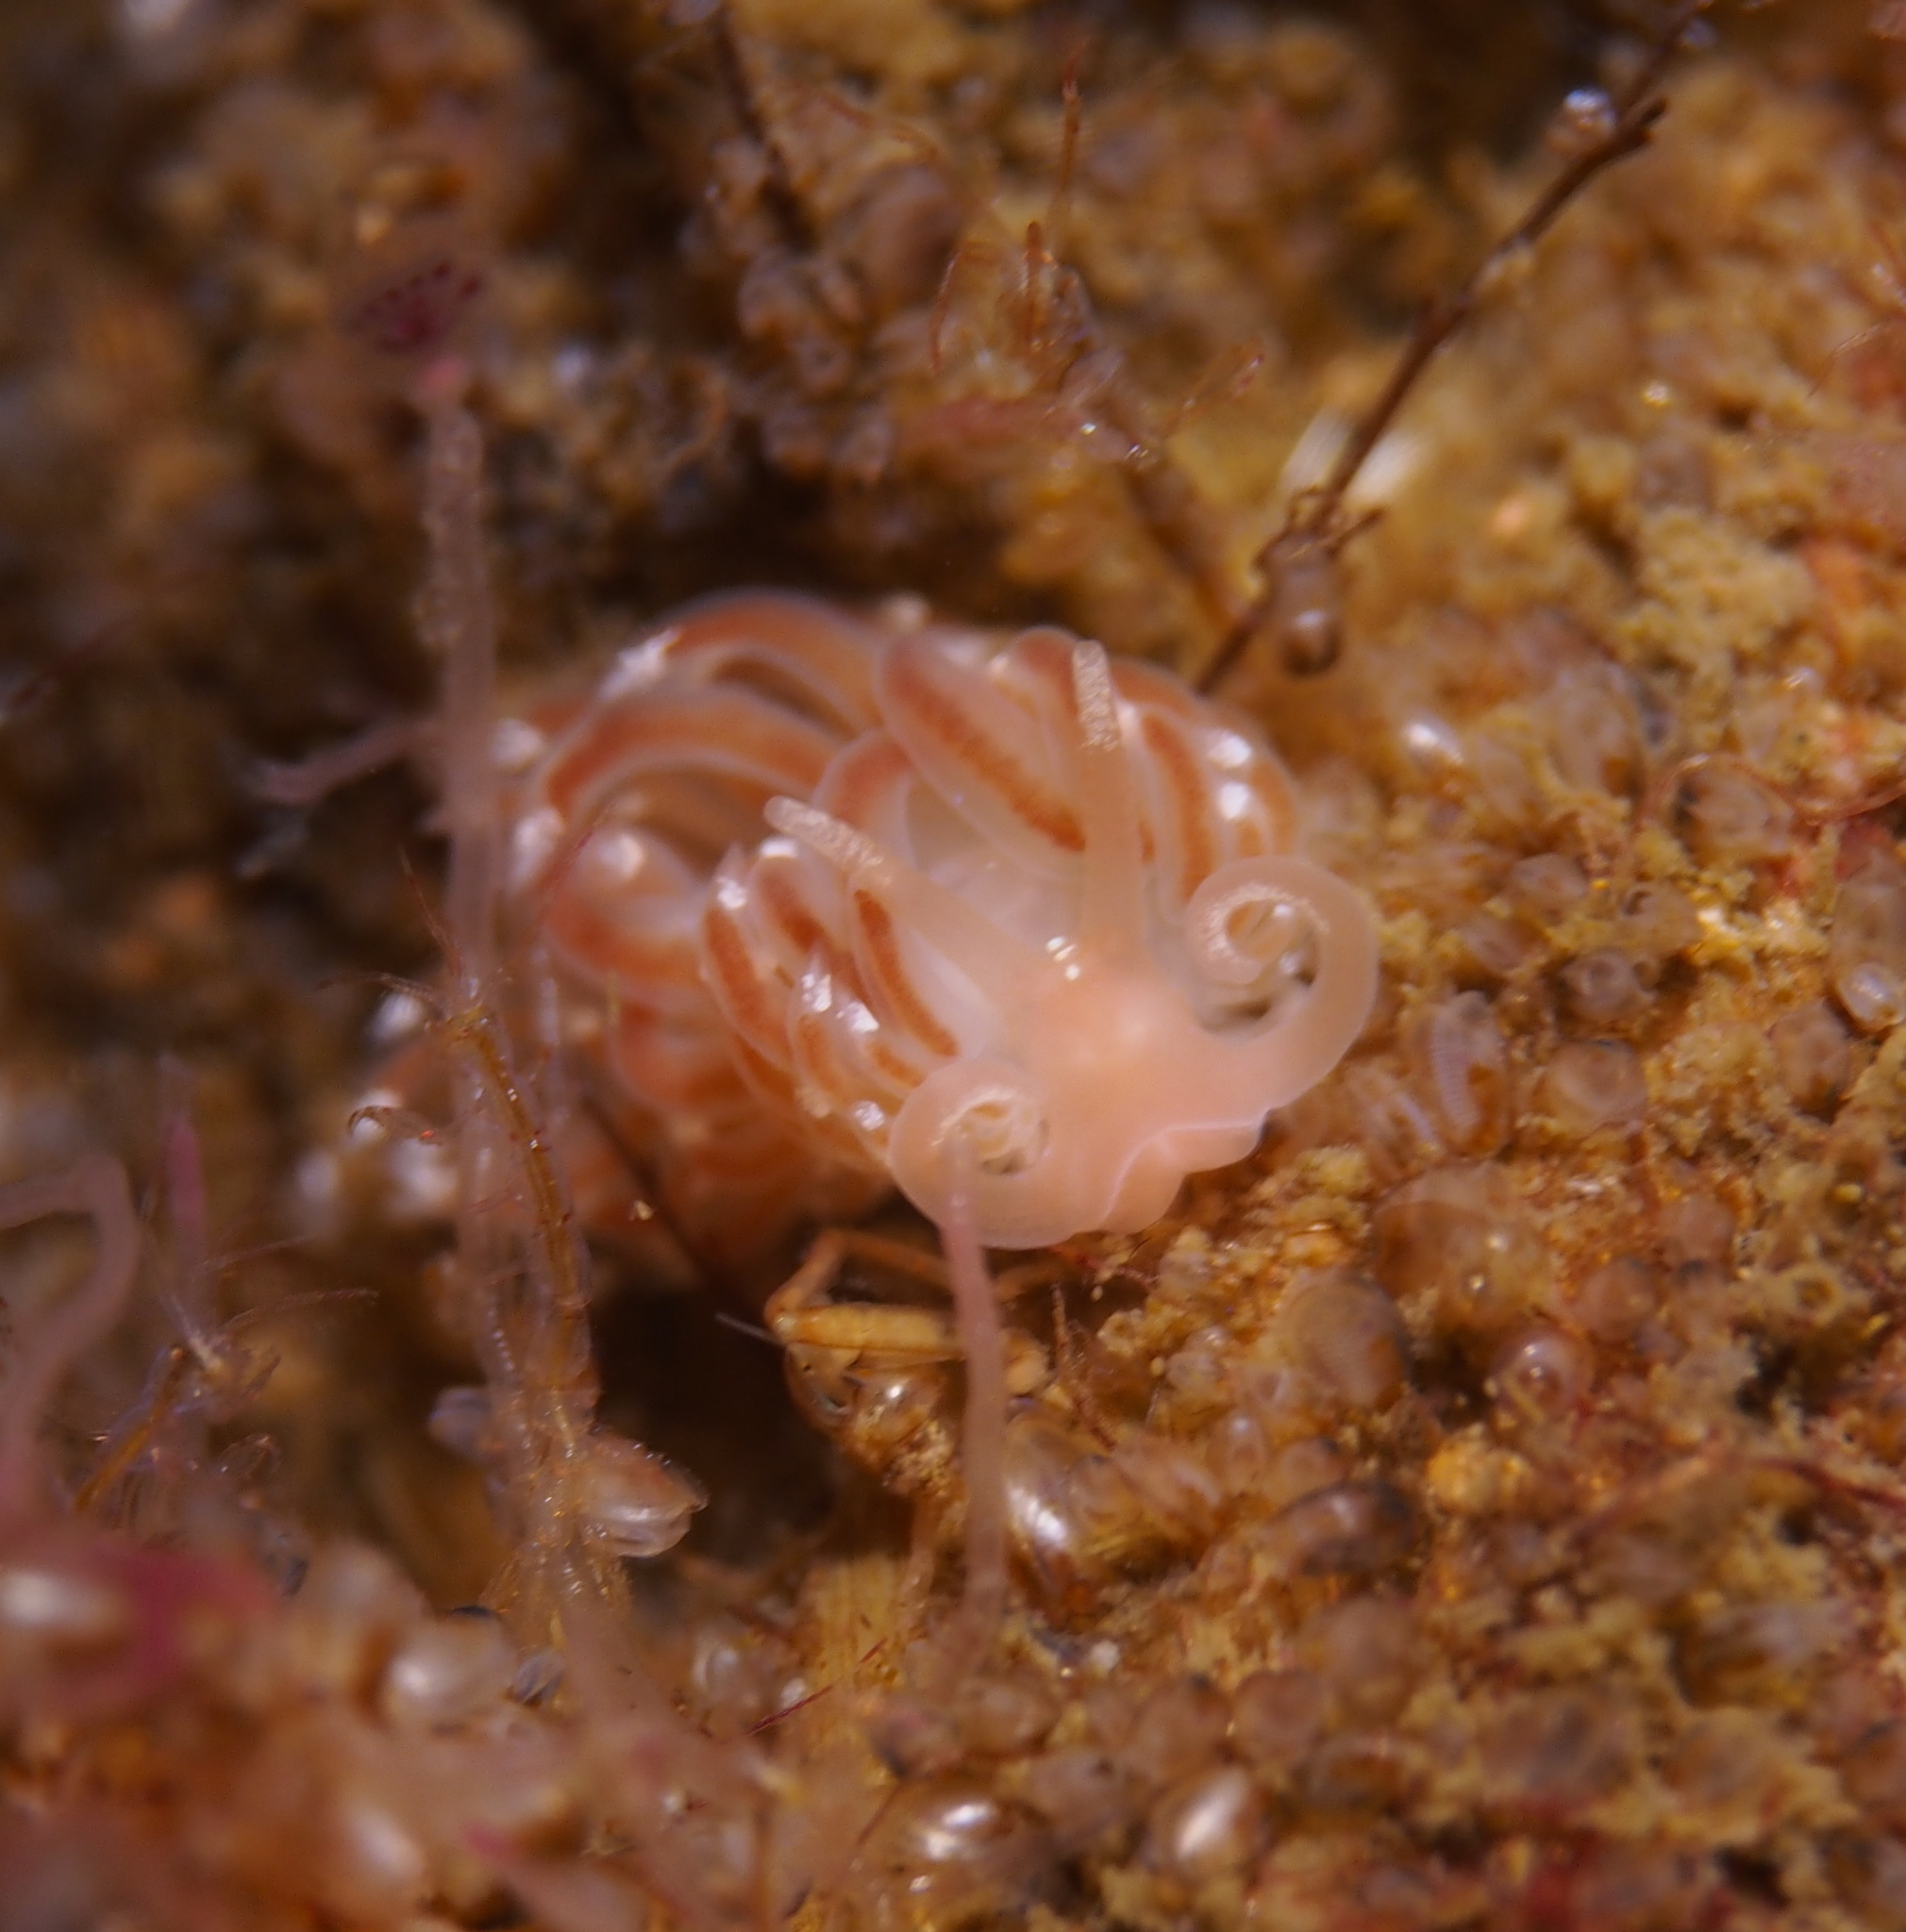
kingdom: Animalia
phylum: Mollusca
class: Gastropoda
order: Nudibranchia
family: Facelinidae
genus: Facelina
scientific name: Facelina bostoniensis
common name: Boston facelina
